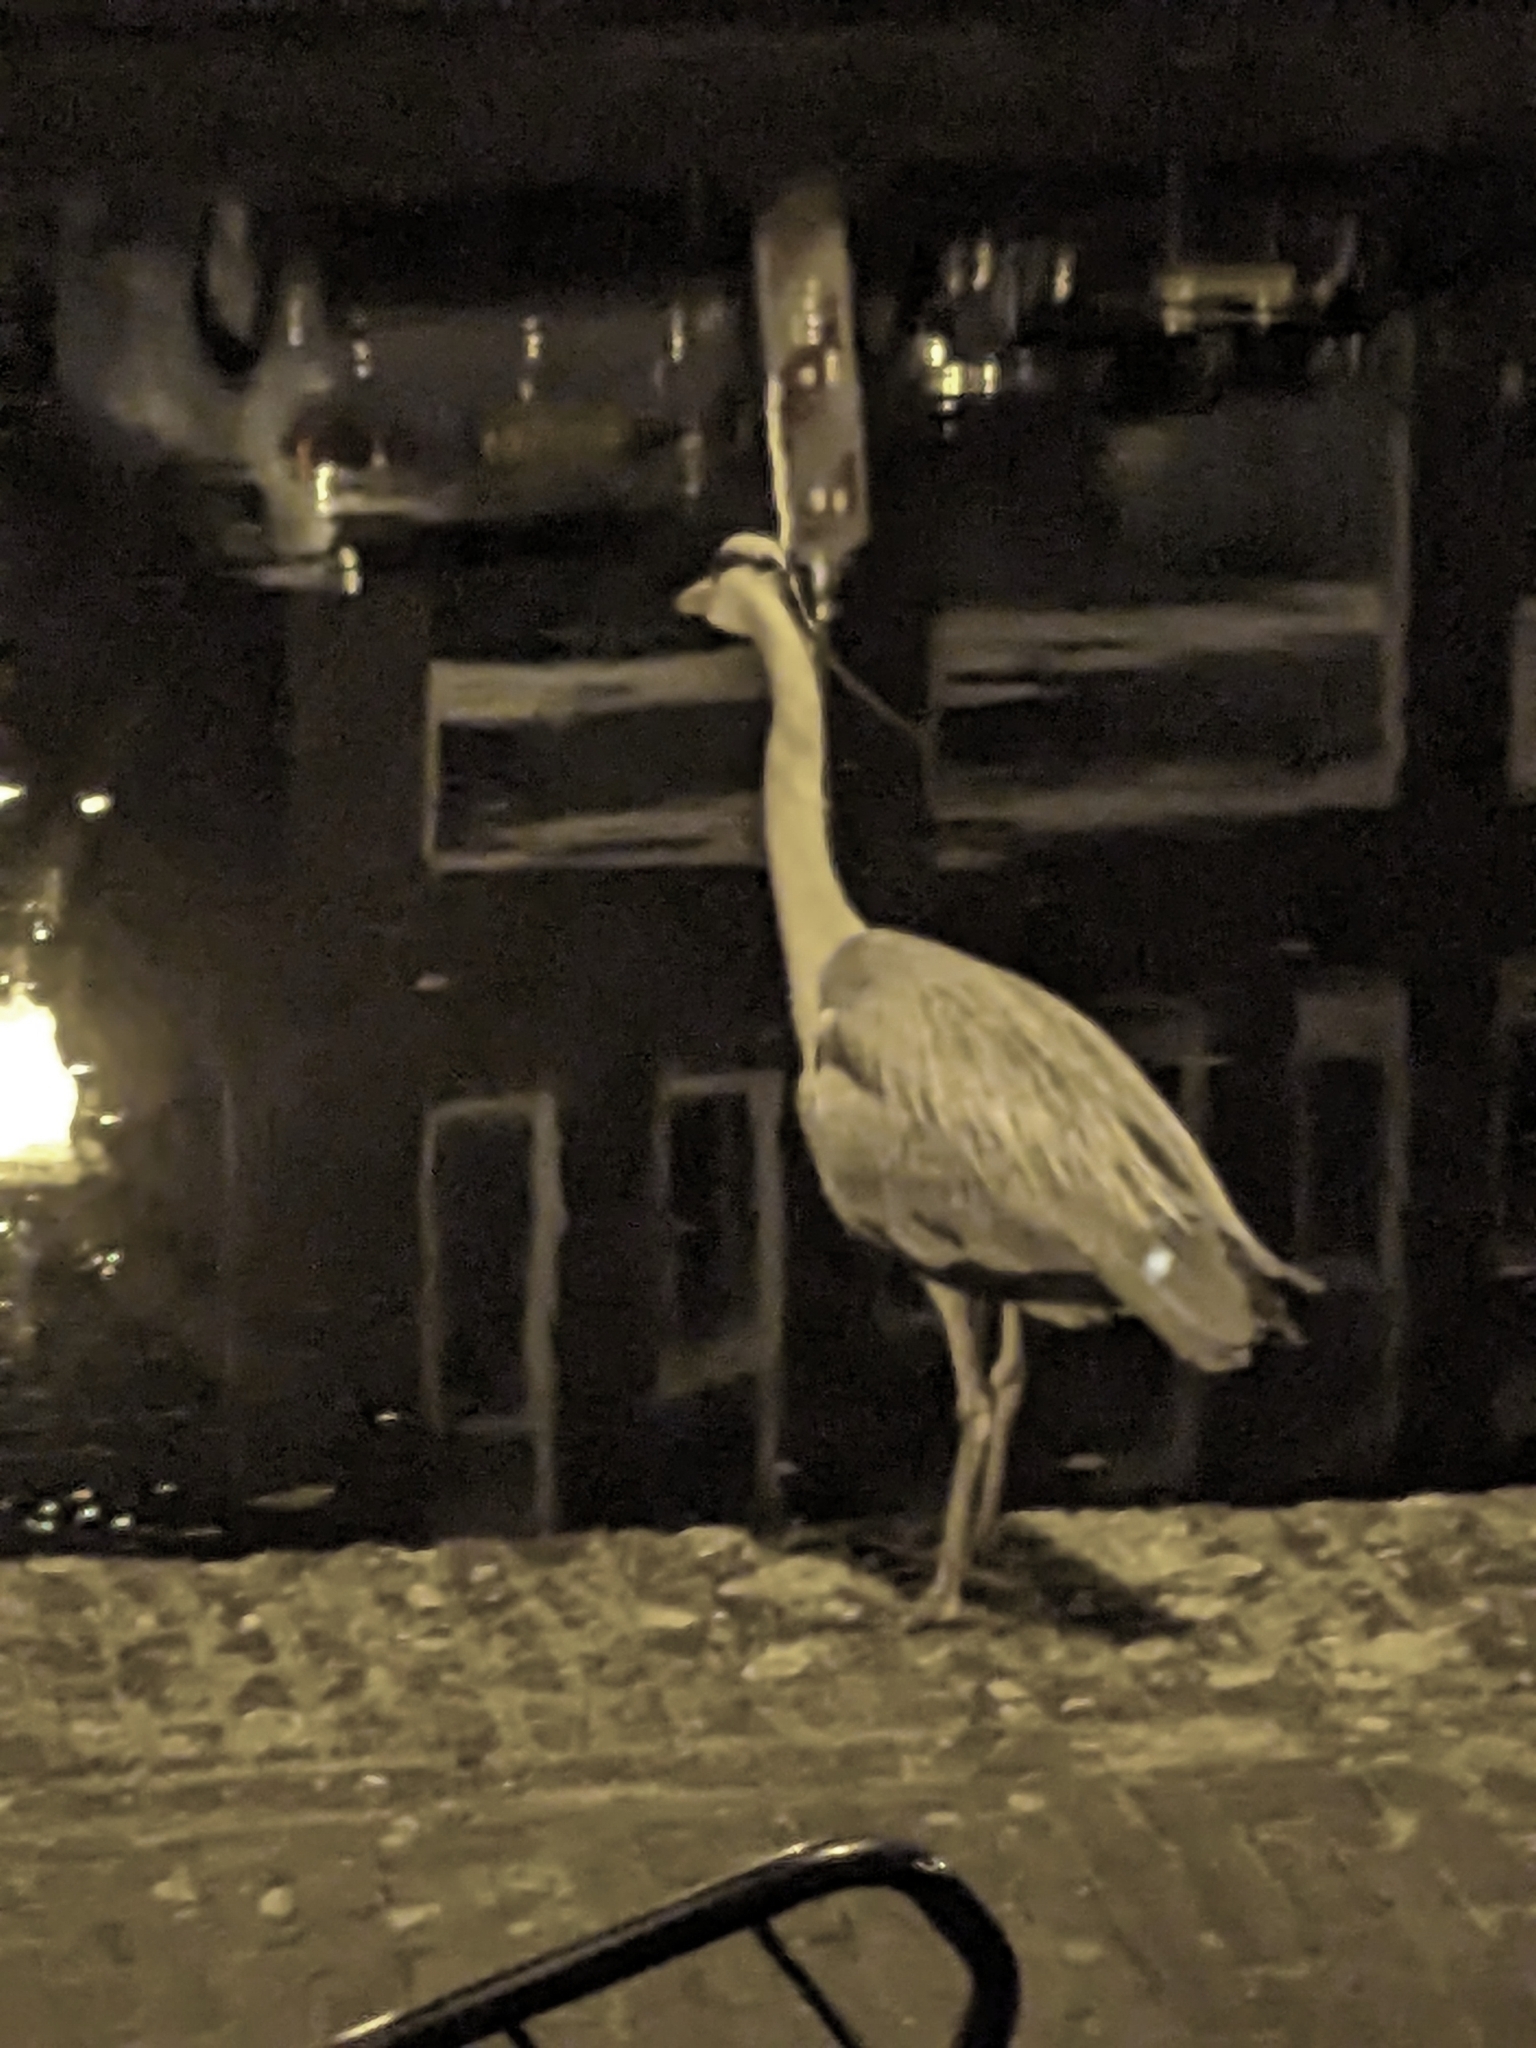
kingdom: Animalia
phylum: Chordata
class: Aves
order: Pelecaniformes
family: Ardeidae
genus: Ardea
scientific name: Ardea cinerea
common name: Grey heron
